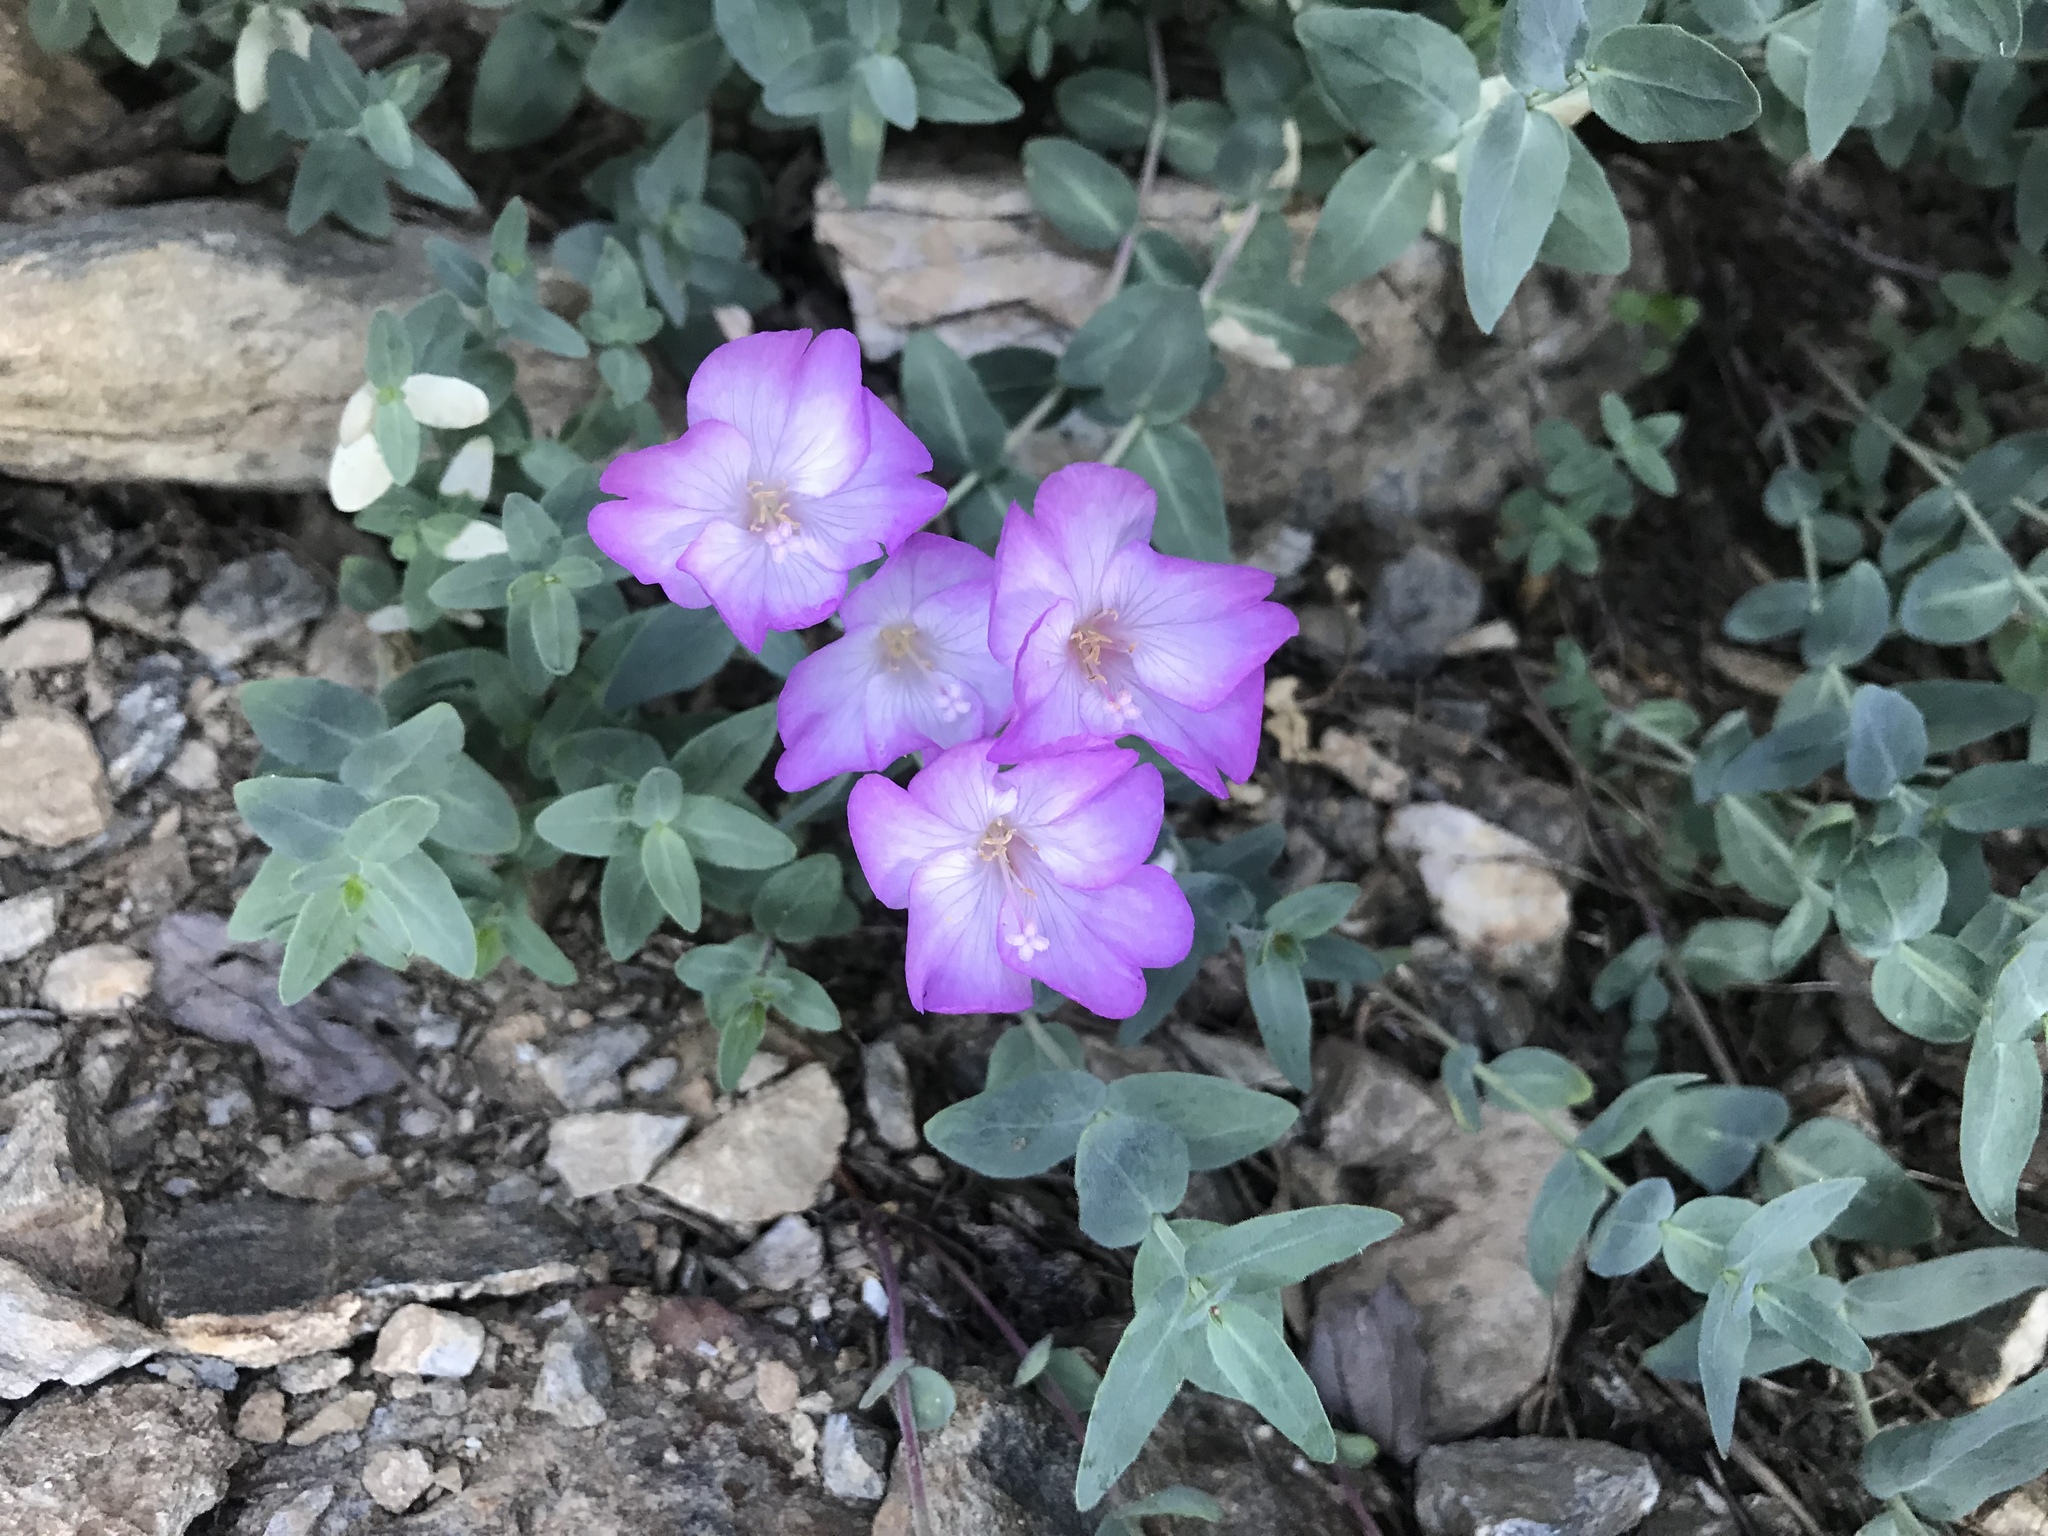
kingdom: Plantae
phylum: Tracheophyta
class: Magnoliopsida
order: Myrtales
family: Onagraceae
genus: Epilobium
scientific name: Epilobium siskiyouense
